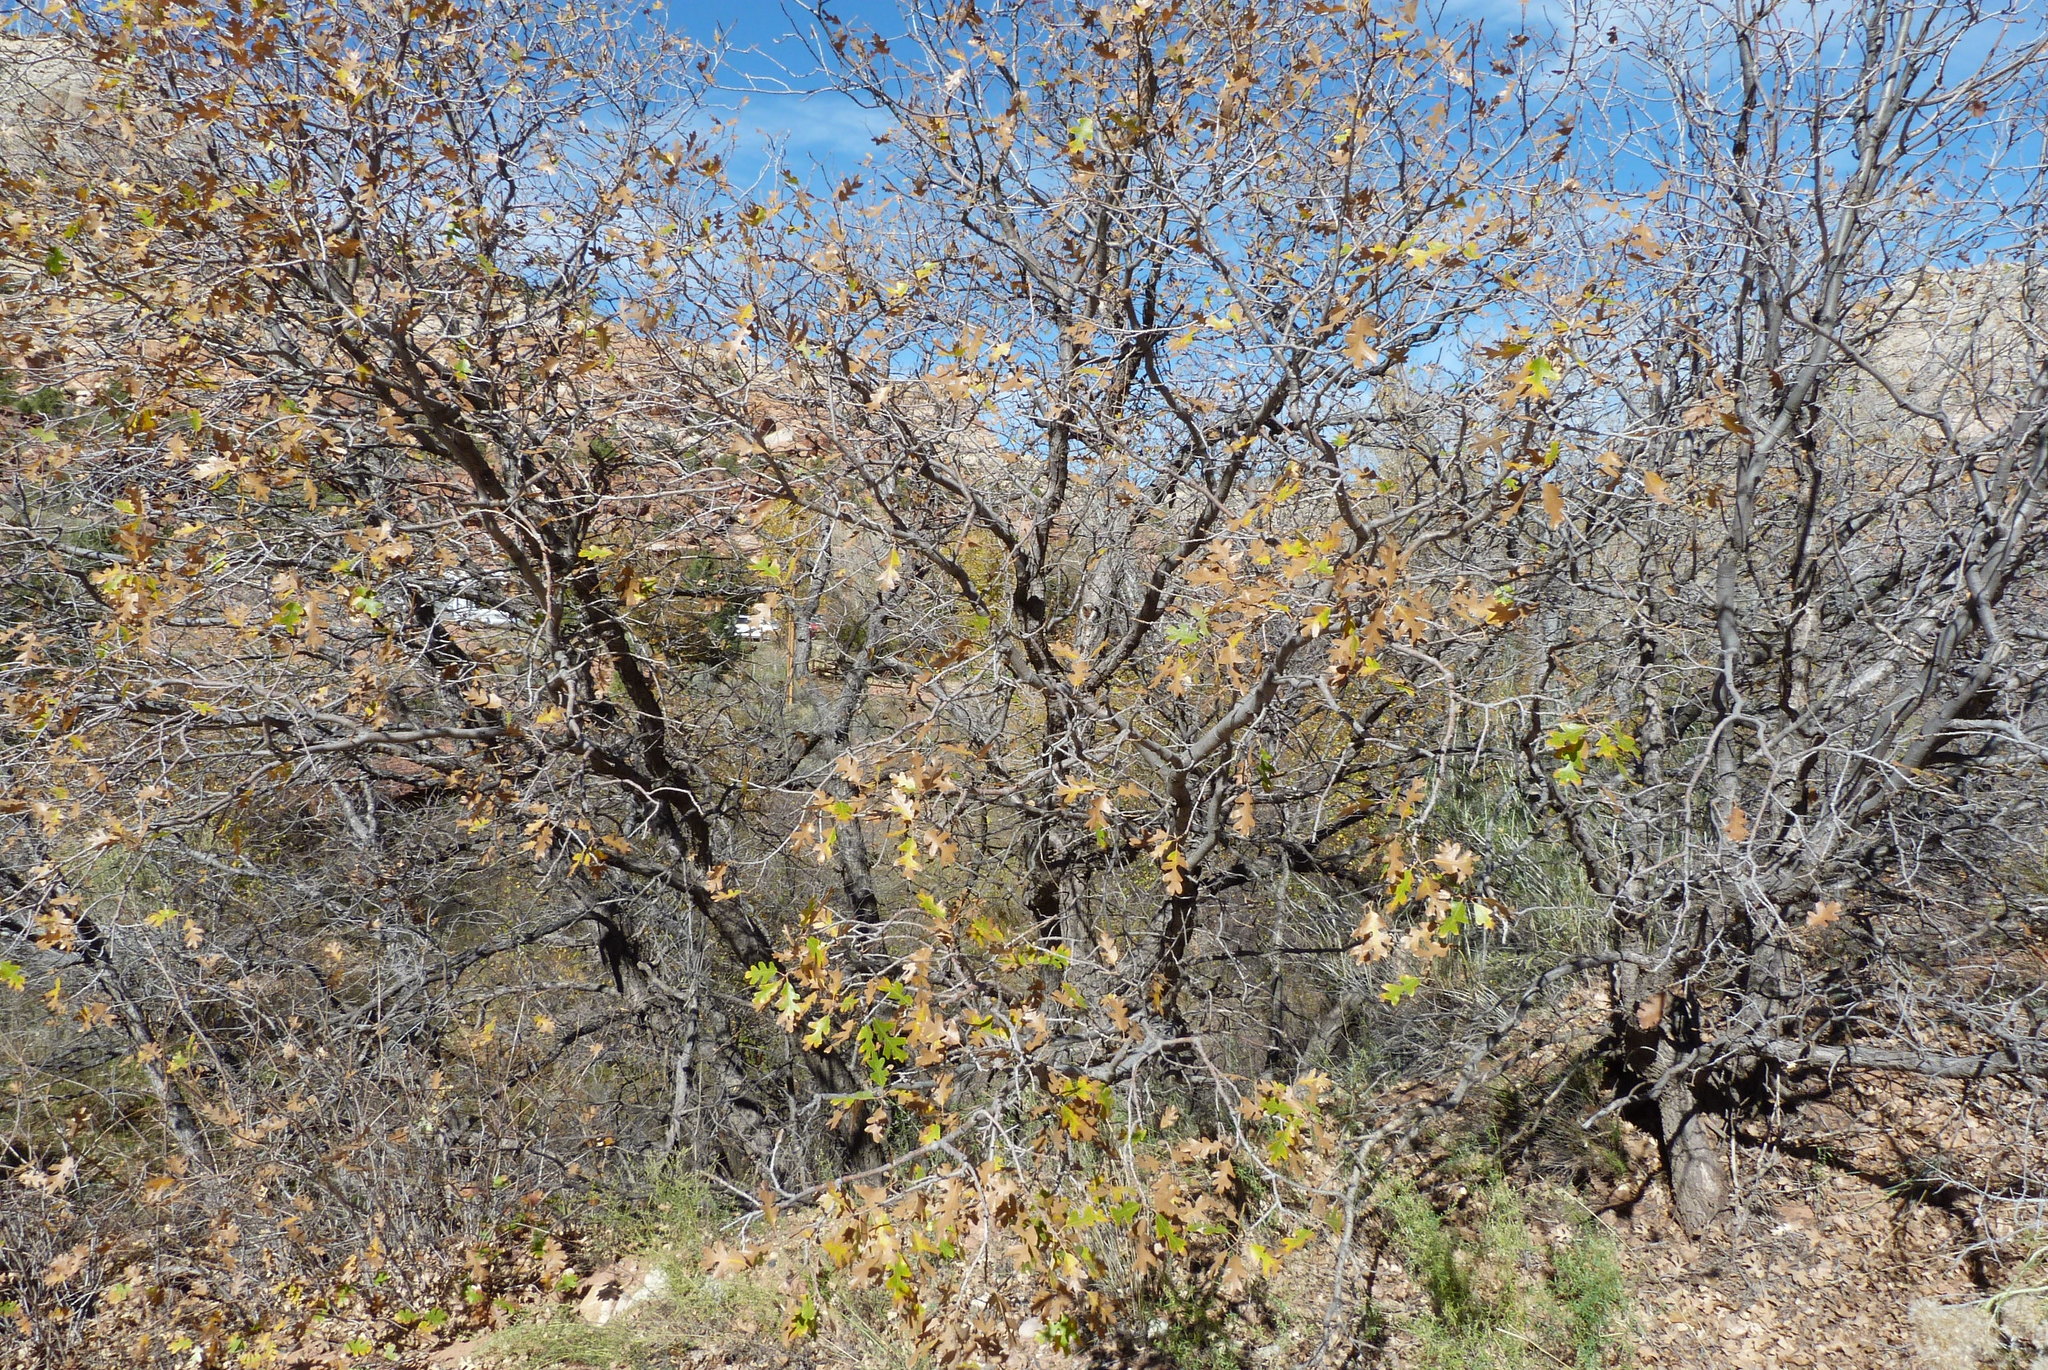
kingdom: Plantae
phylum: Tracheophyta
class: Magnoliopsida
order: Fagales
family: Fagaceae
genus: Quercus
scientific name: Quercus gambelii
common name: Gambel oak
